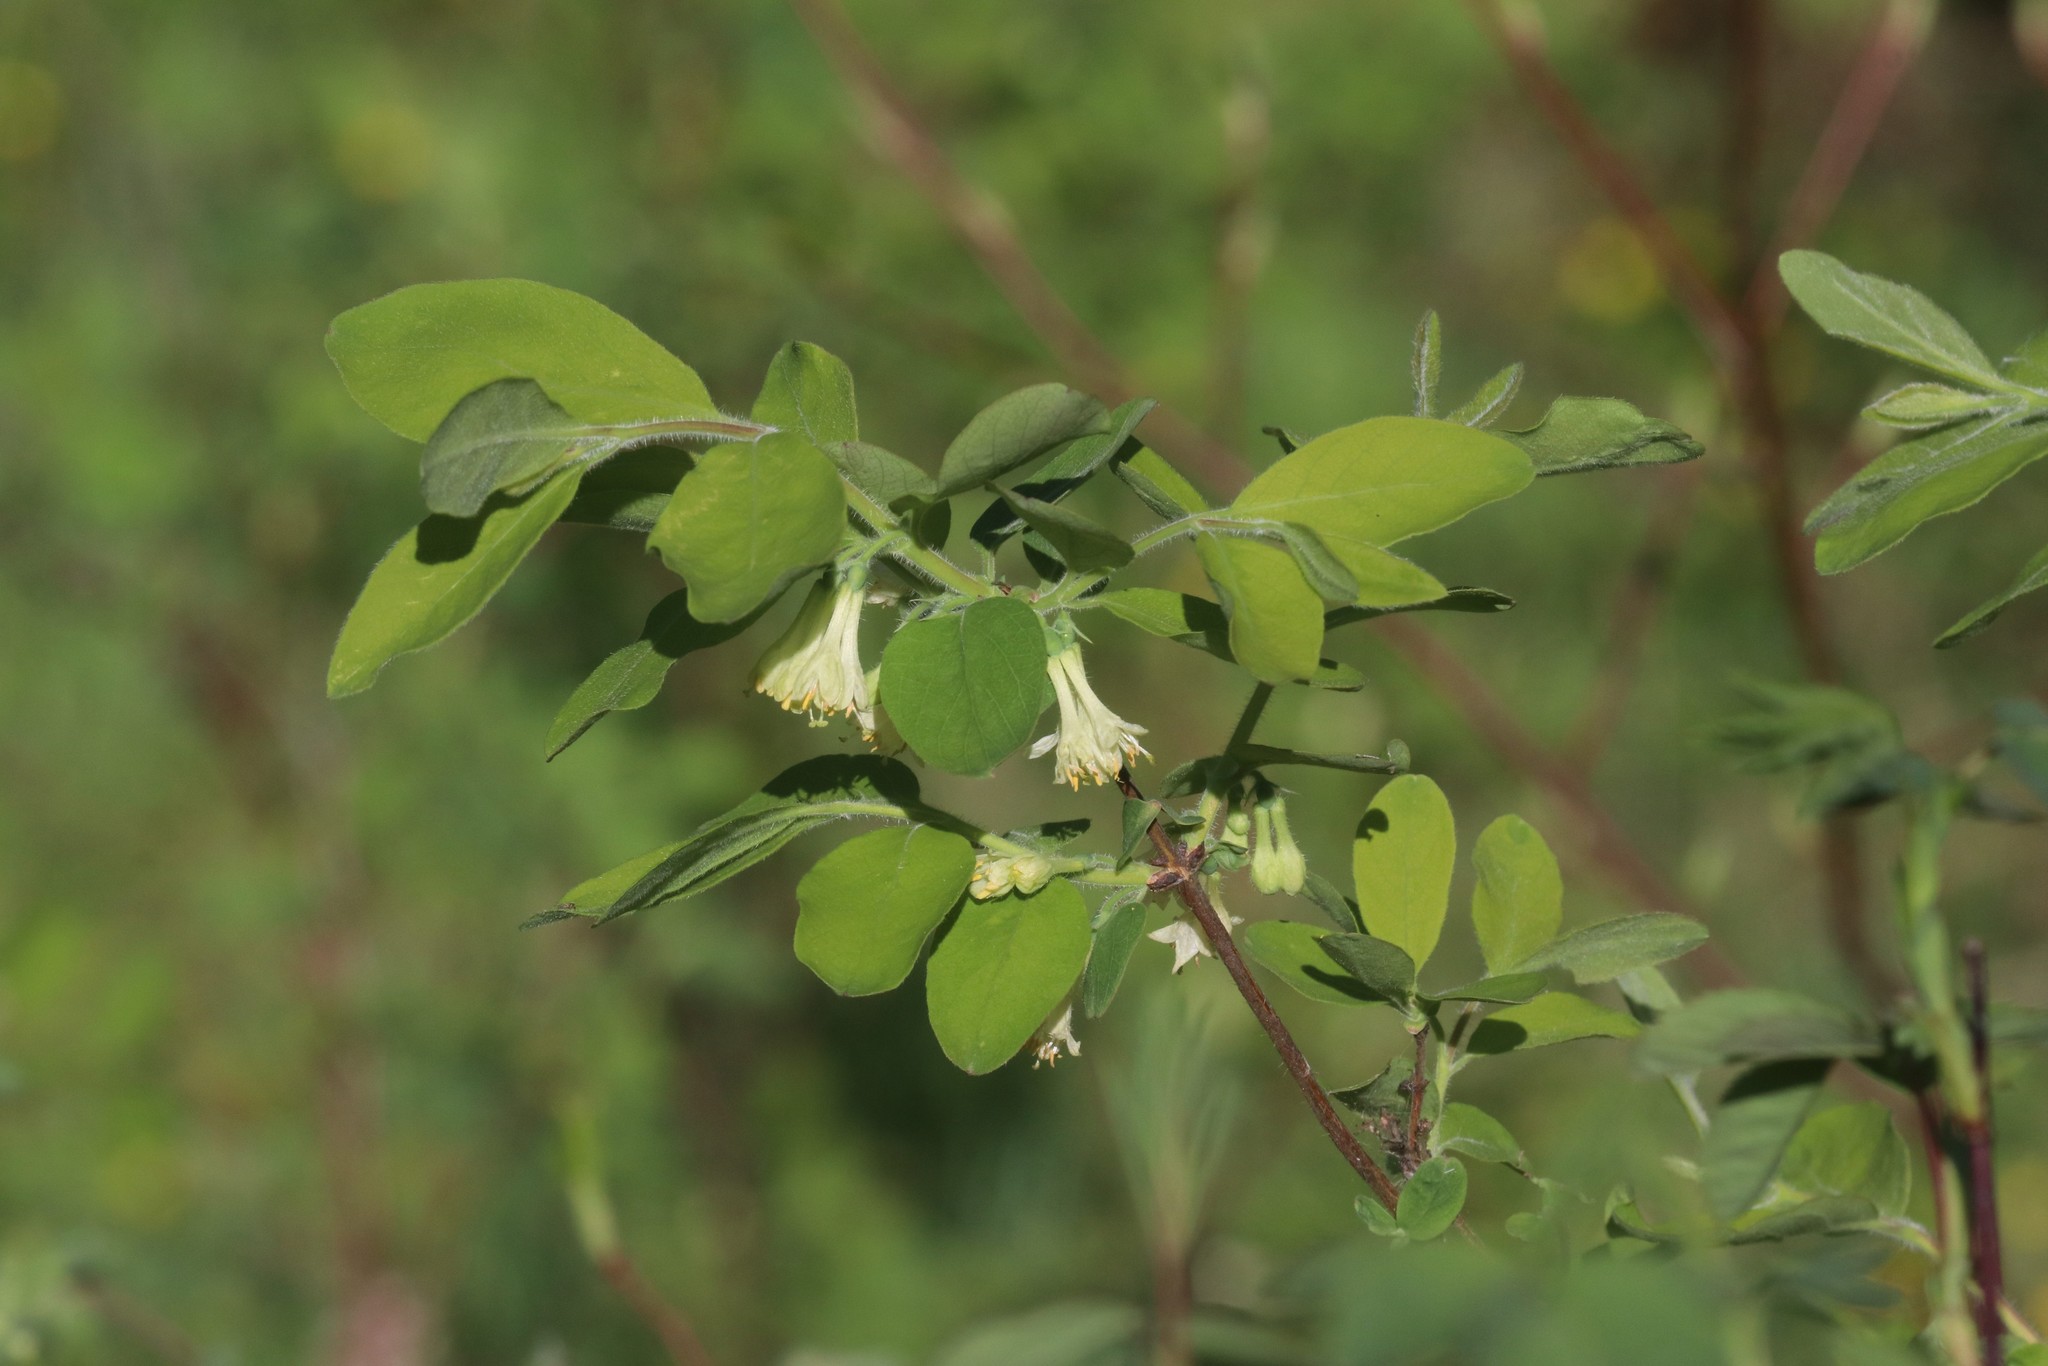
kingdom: Plantae
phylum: Tracheophyta
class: Magnoliopsida
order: Dipsacales
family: Caprifoliaceae
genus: Lonicera
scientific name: Lonicera caerulea
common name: Blue honeysuckle
